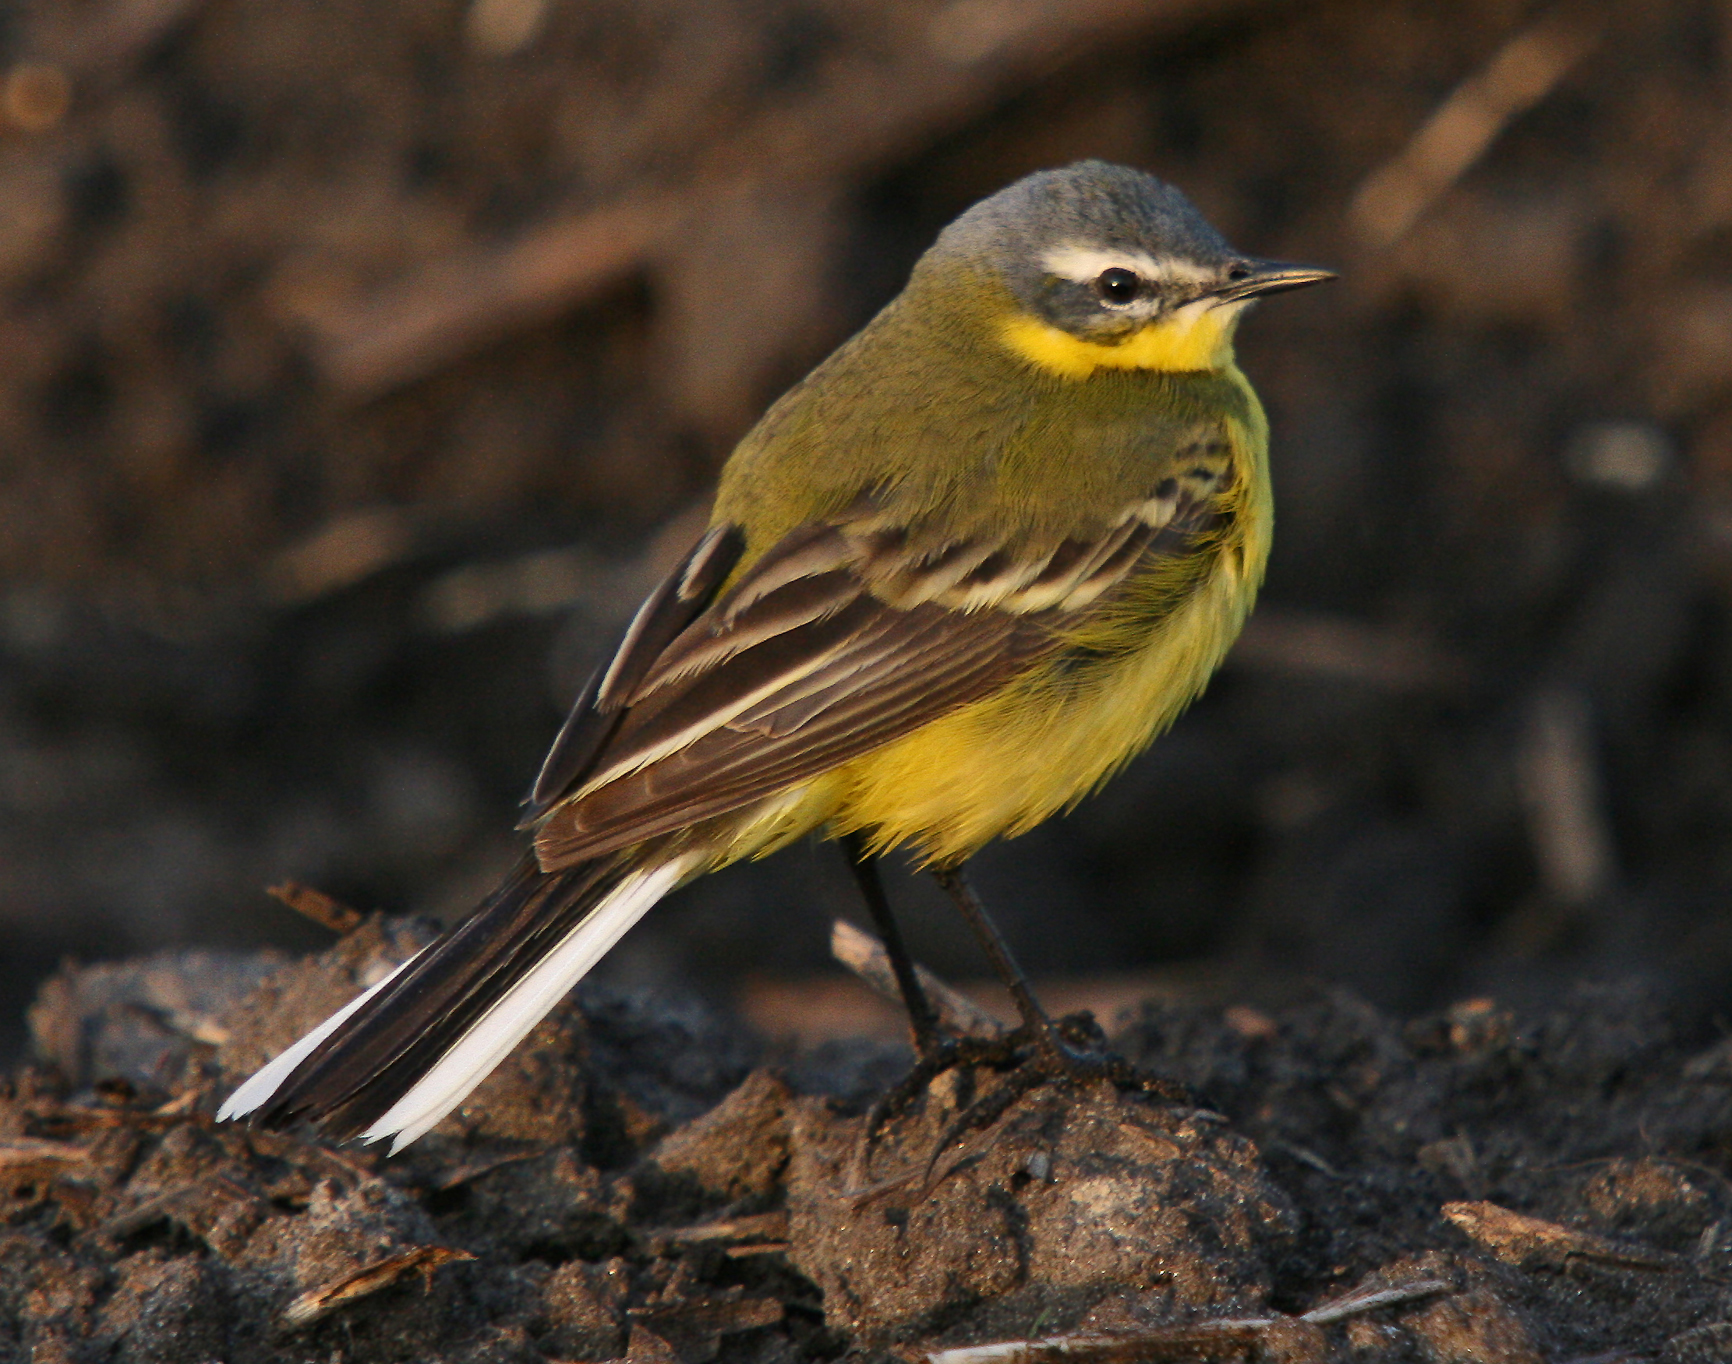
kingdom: Animalia
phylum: Chordata
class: Aves
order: Passeriformes
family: Motacillidae
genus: Motacilla
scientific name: Motacilla flava
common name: Western yellow wagtail
